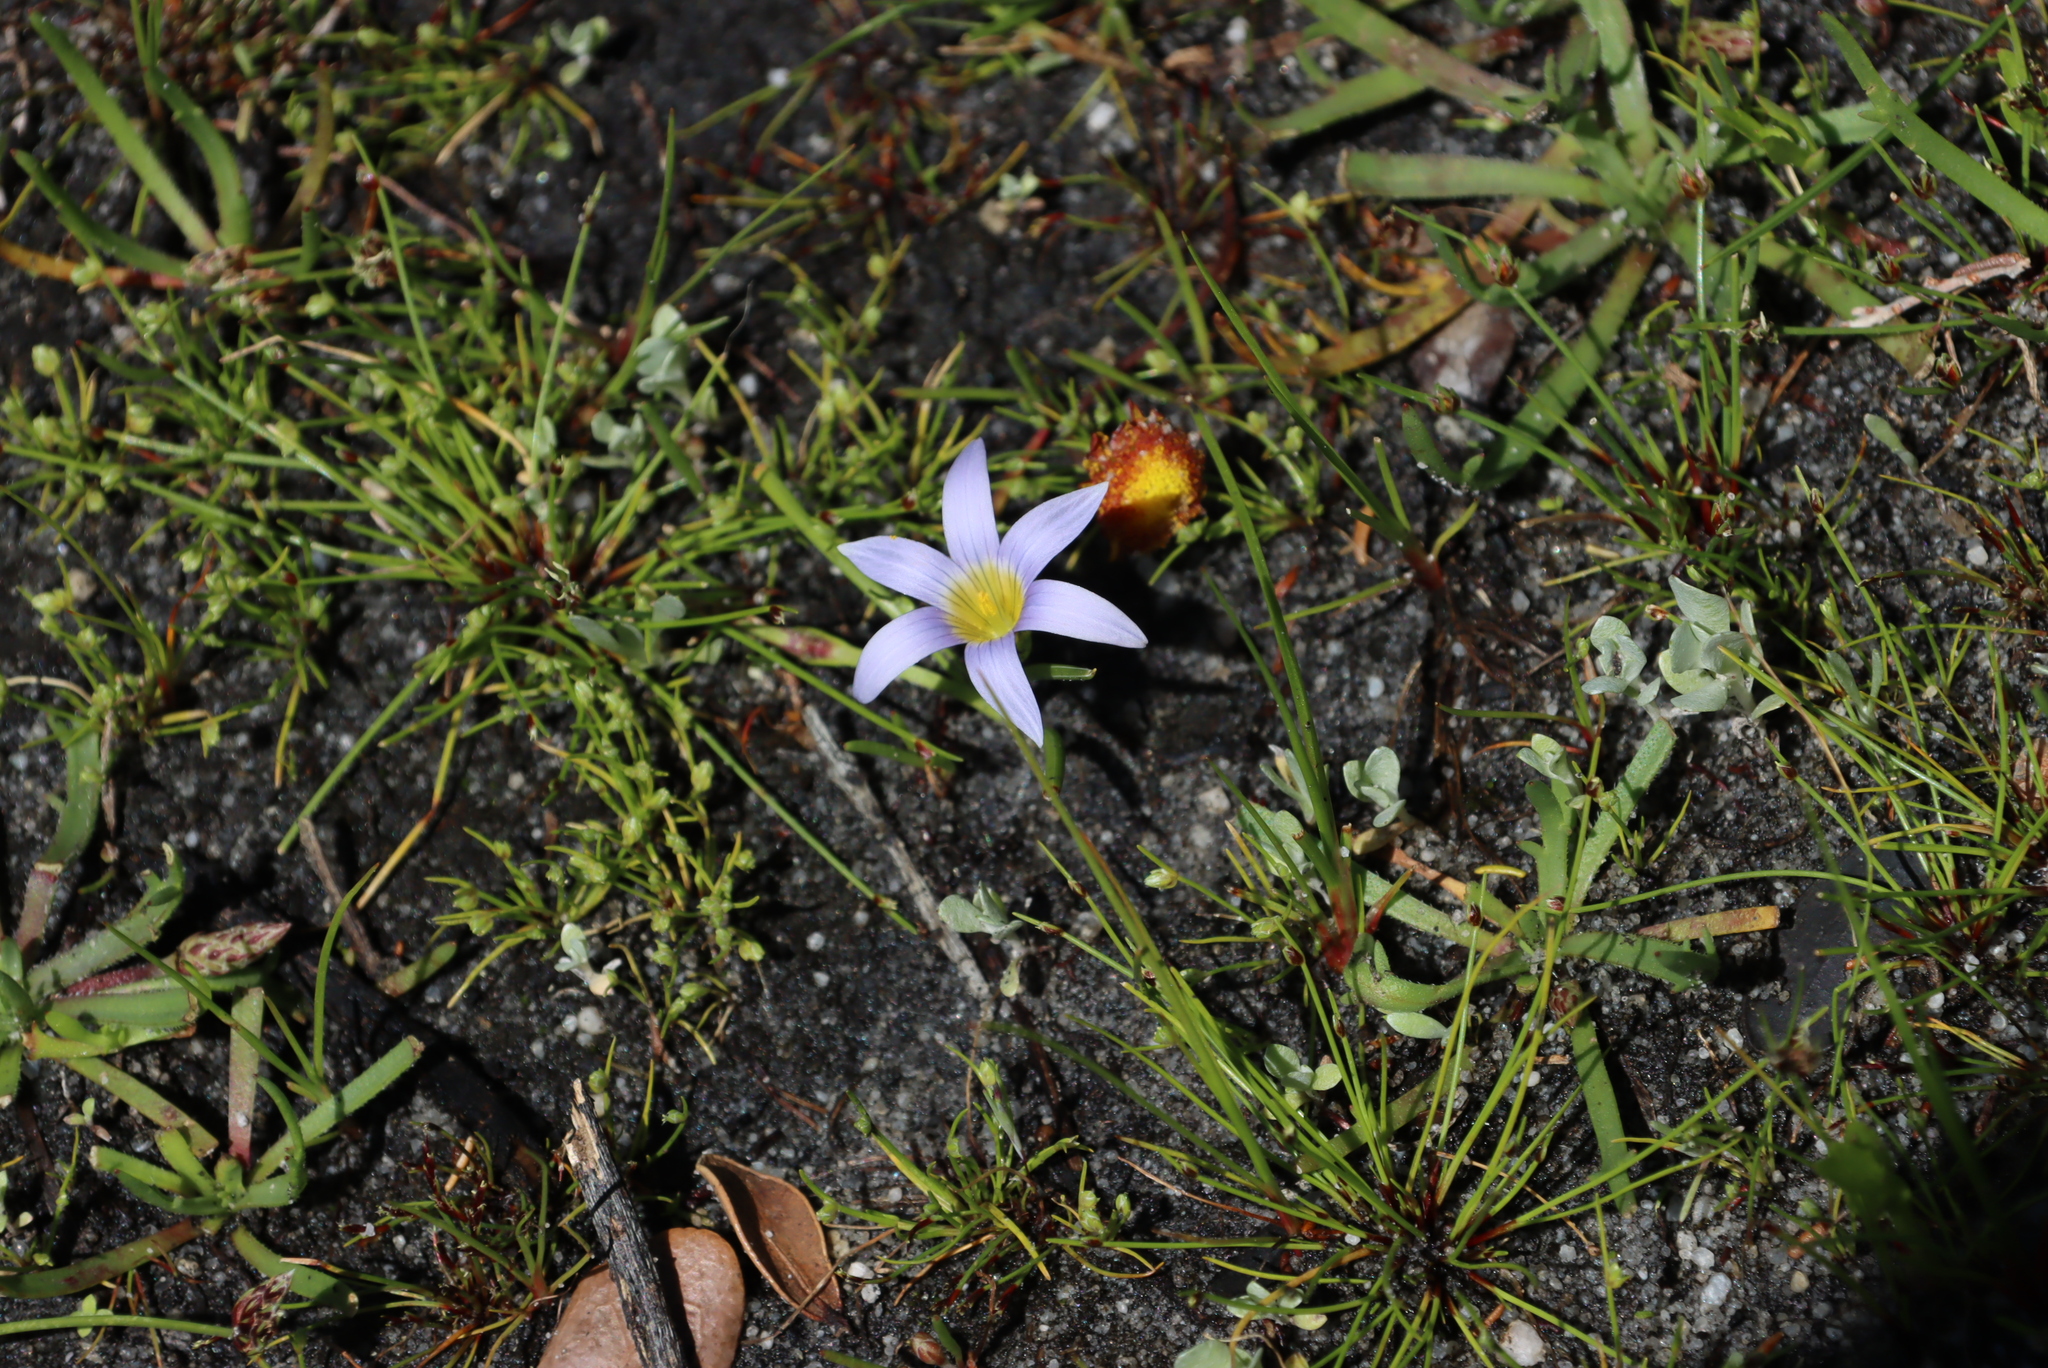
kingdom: Plantae
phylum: Tracheophyta
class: Liliopsida
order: Asparagales
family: Iridaceae
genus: Romulea
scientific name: Romulea tabularis
